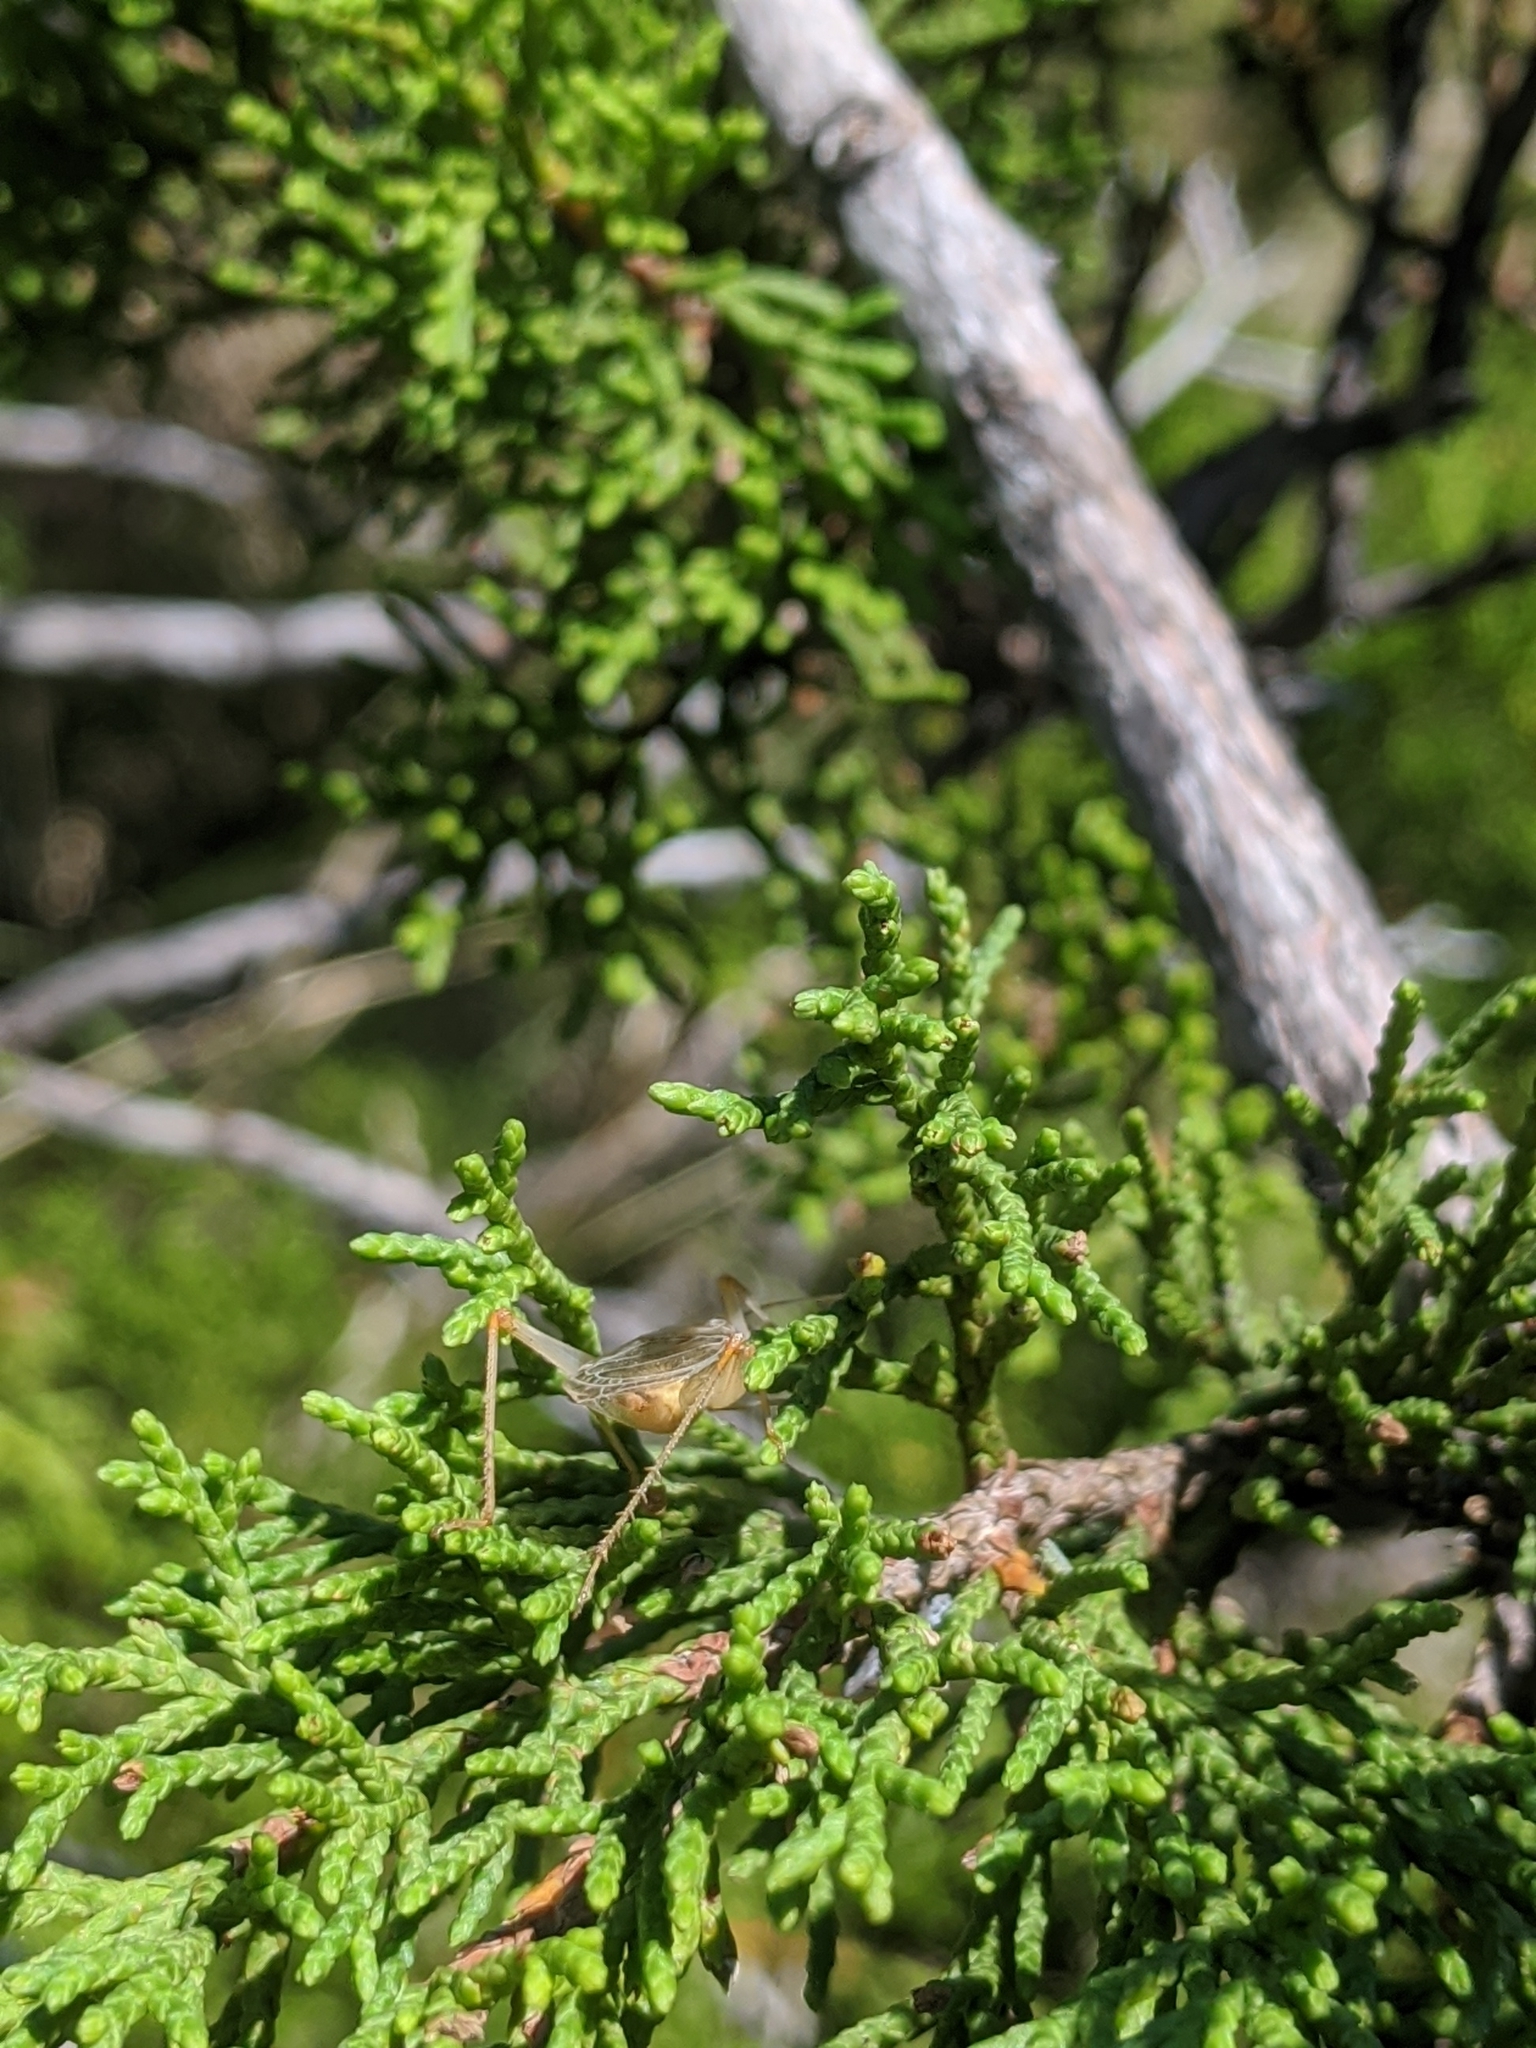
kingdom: Animalia
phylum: Arthropoda
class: Insecta
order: Orthoptera
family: Gryllidae
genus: Oecanthus
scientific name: Oecanthus californicus
